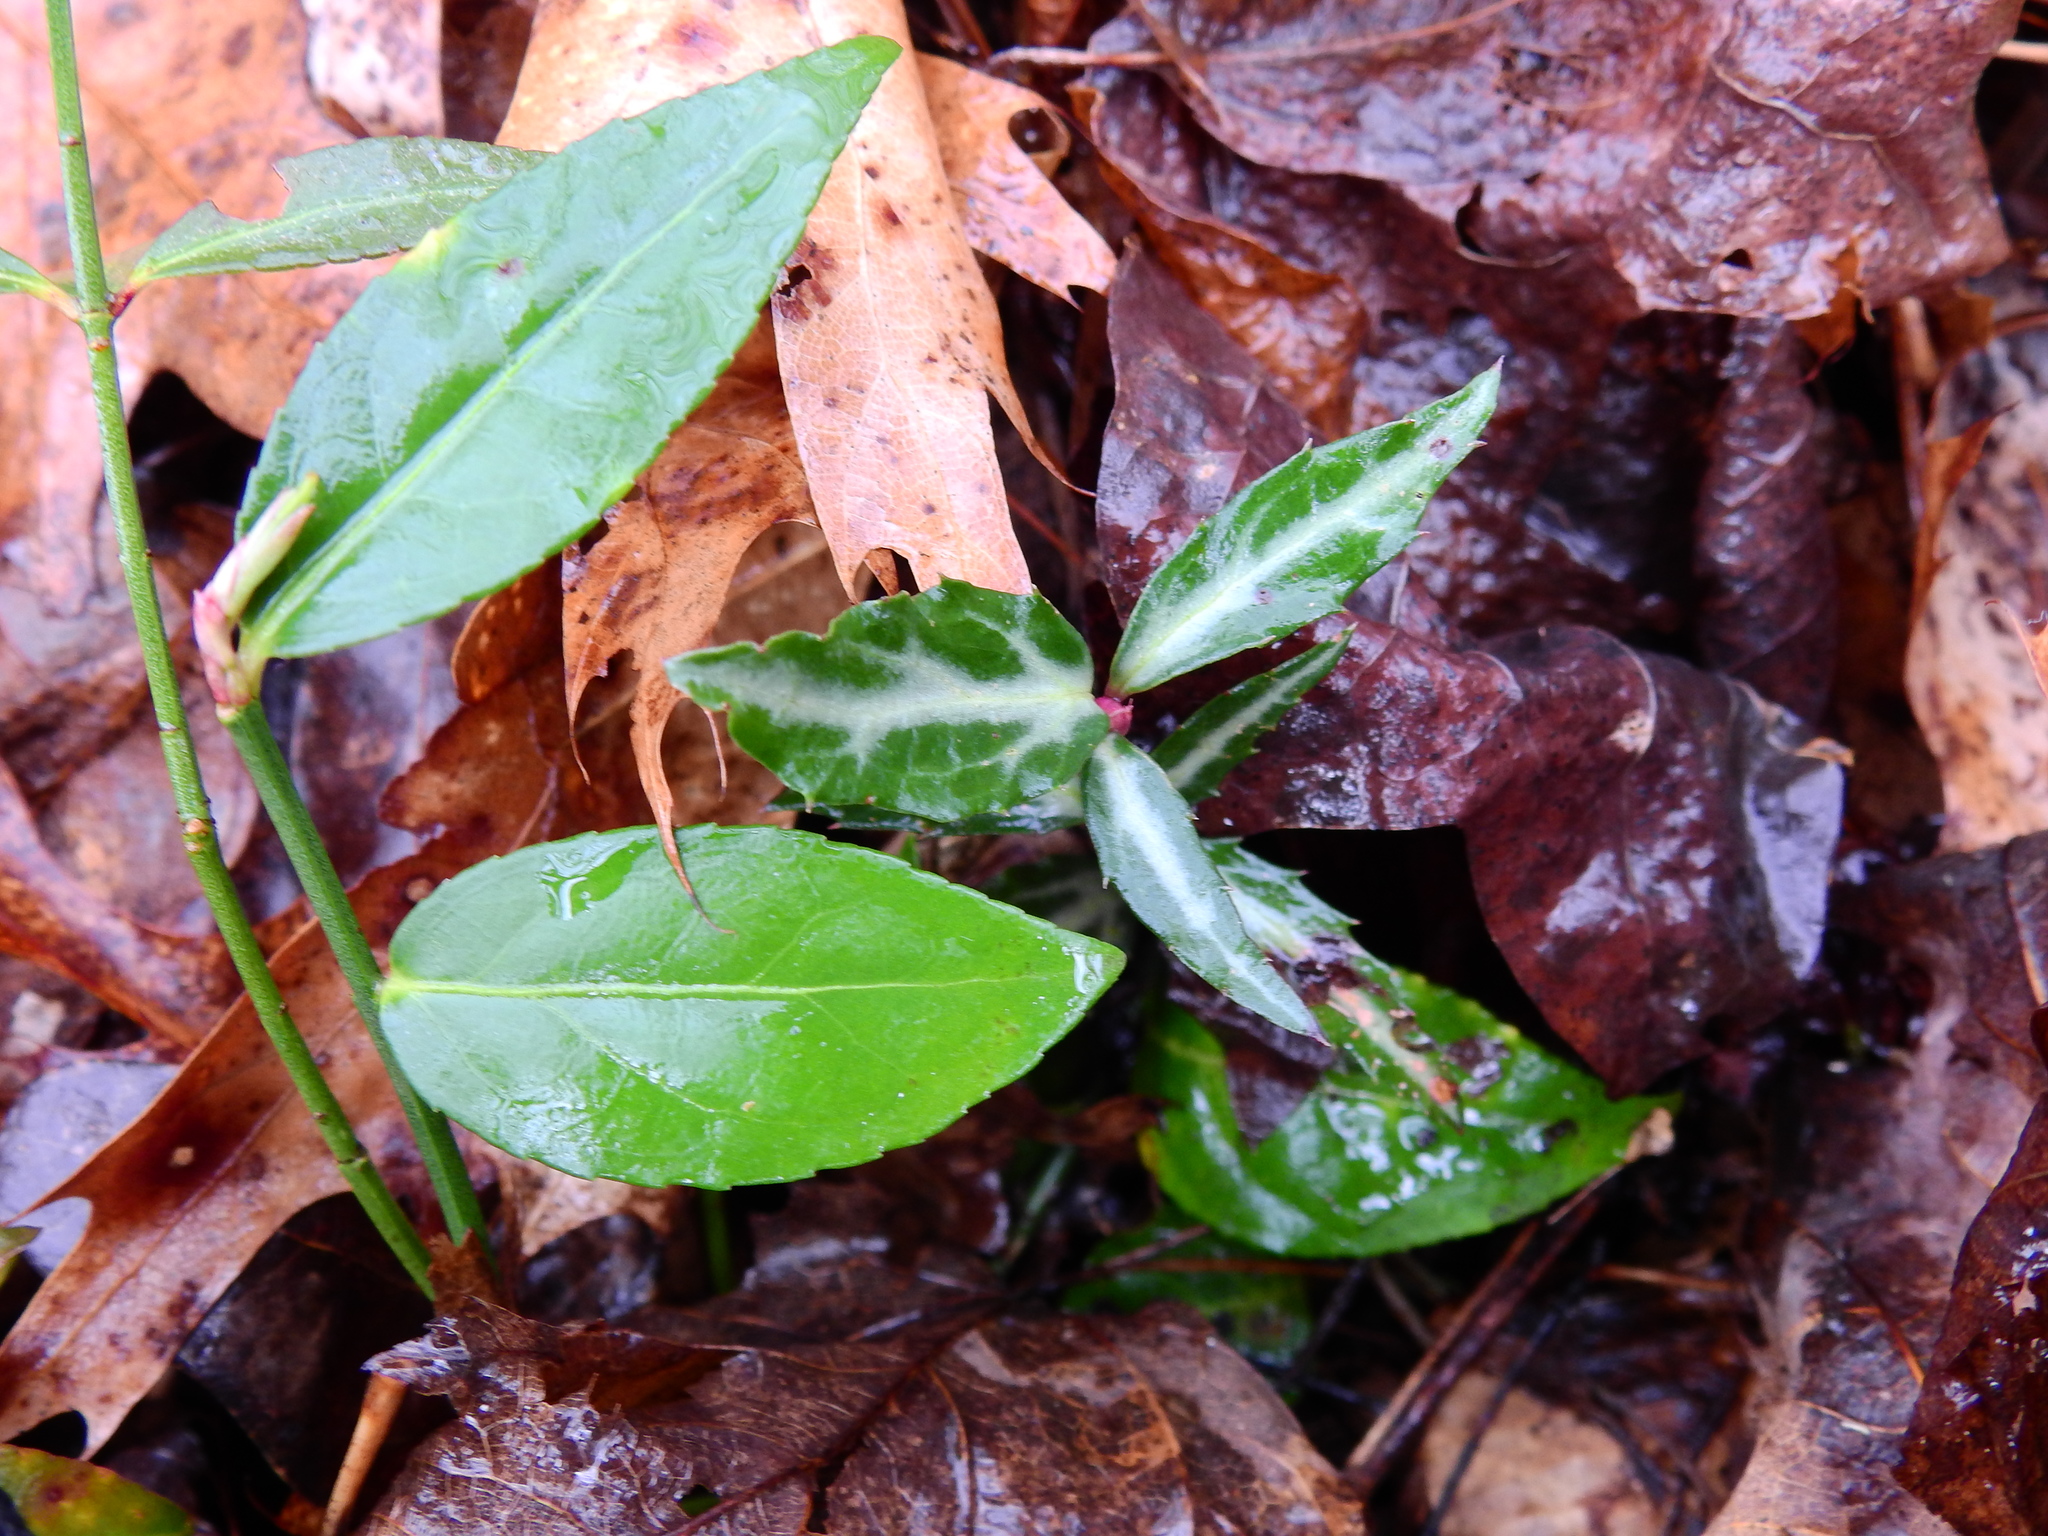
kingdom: Plantae
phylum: Tracheophyta
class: Magnoliopsida
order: Ericales
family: Ericaceae
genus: Chimaphila
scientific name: Chimaphila maculata
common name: Spotted pipsissewa
